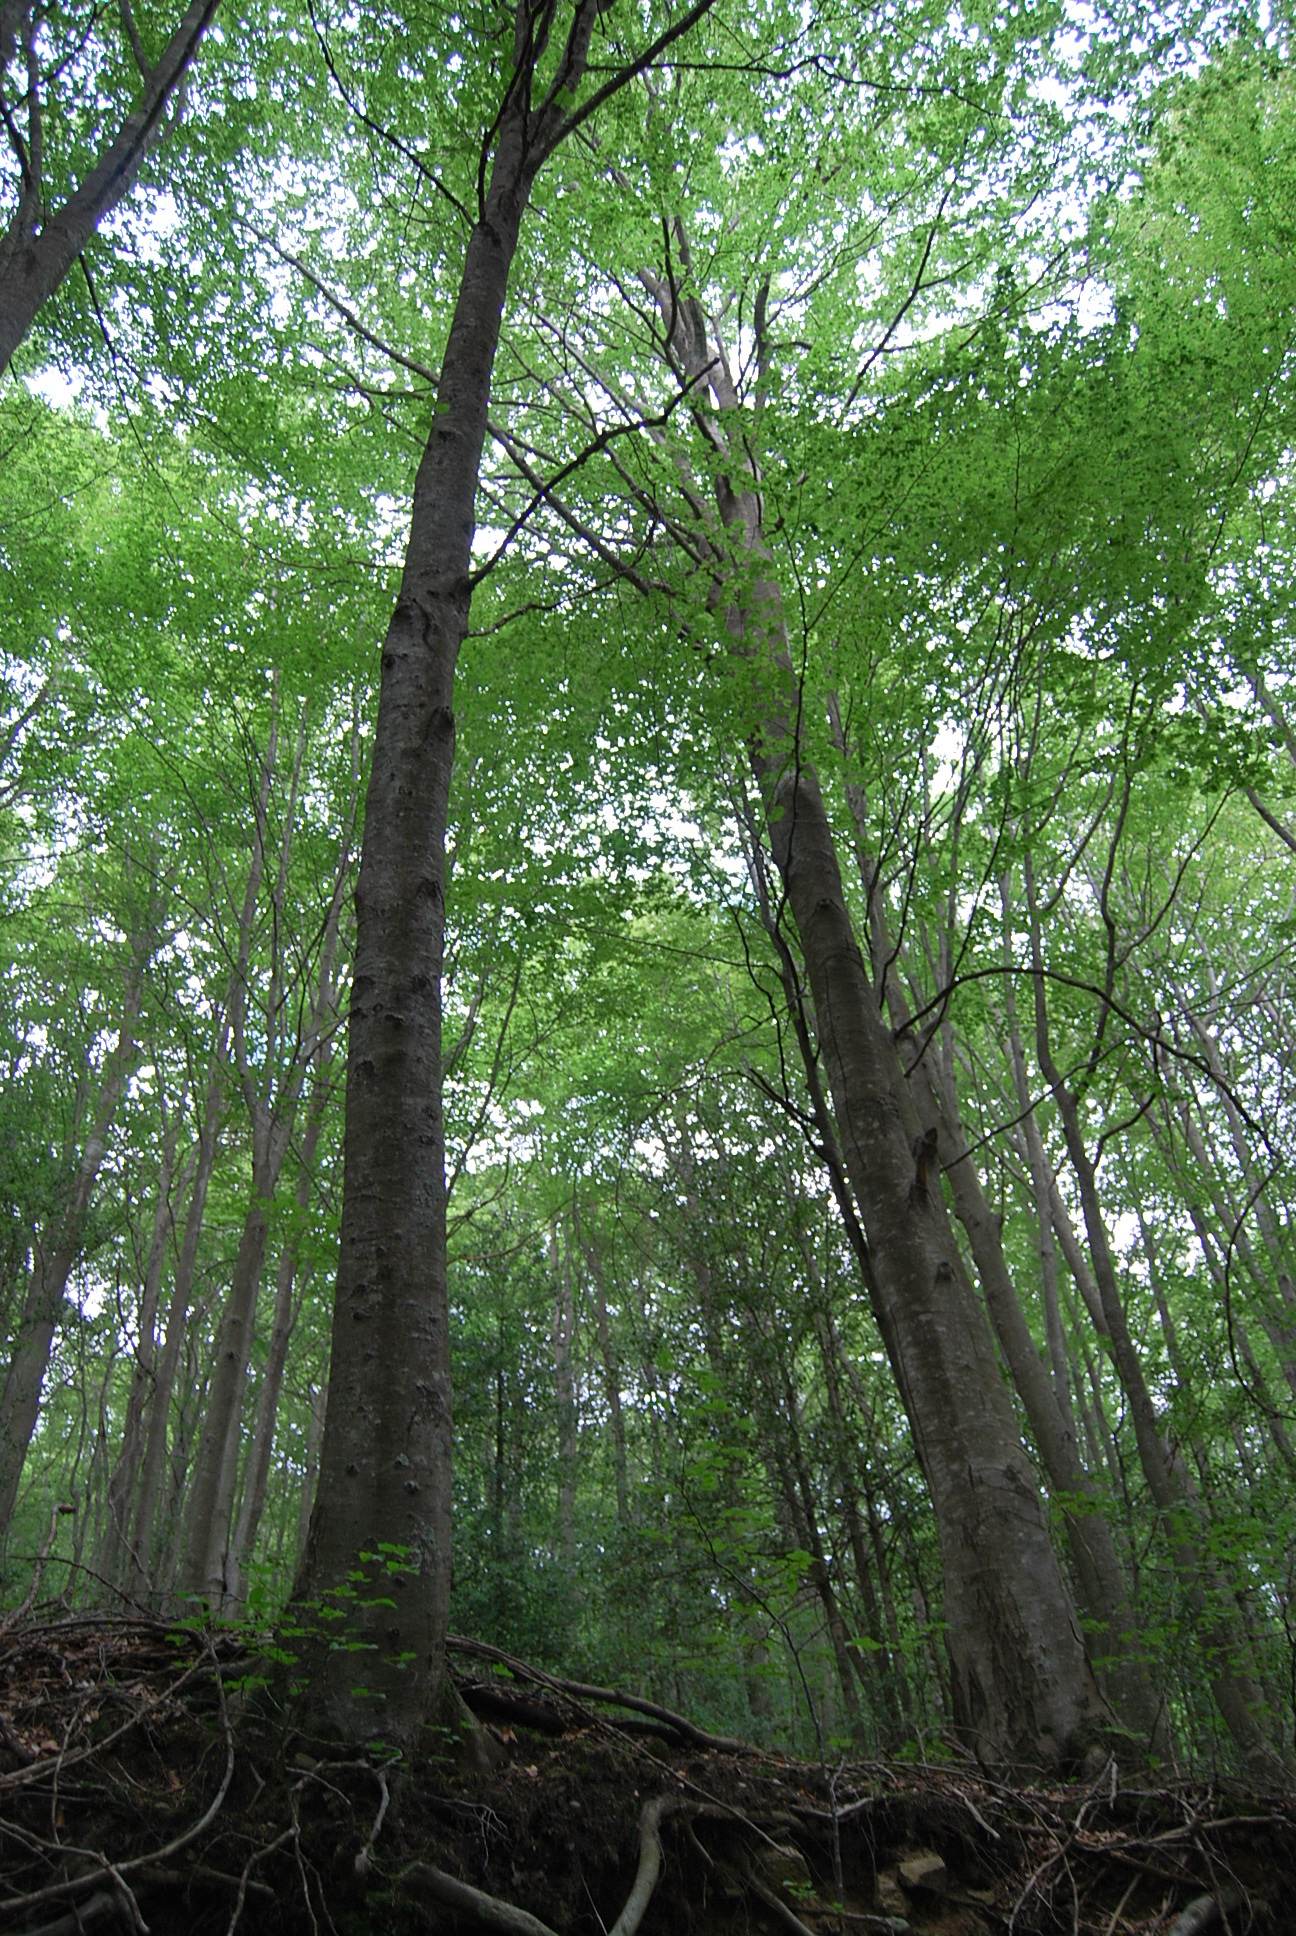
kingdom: Plantae
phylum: Tracheophyta
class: Magnoliopsida
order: Fagales
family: Fagaceae
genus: Fagus
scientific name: Fagus sylvatica
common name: Beech
